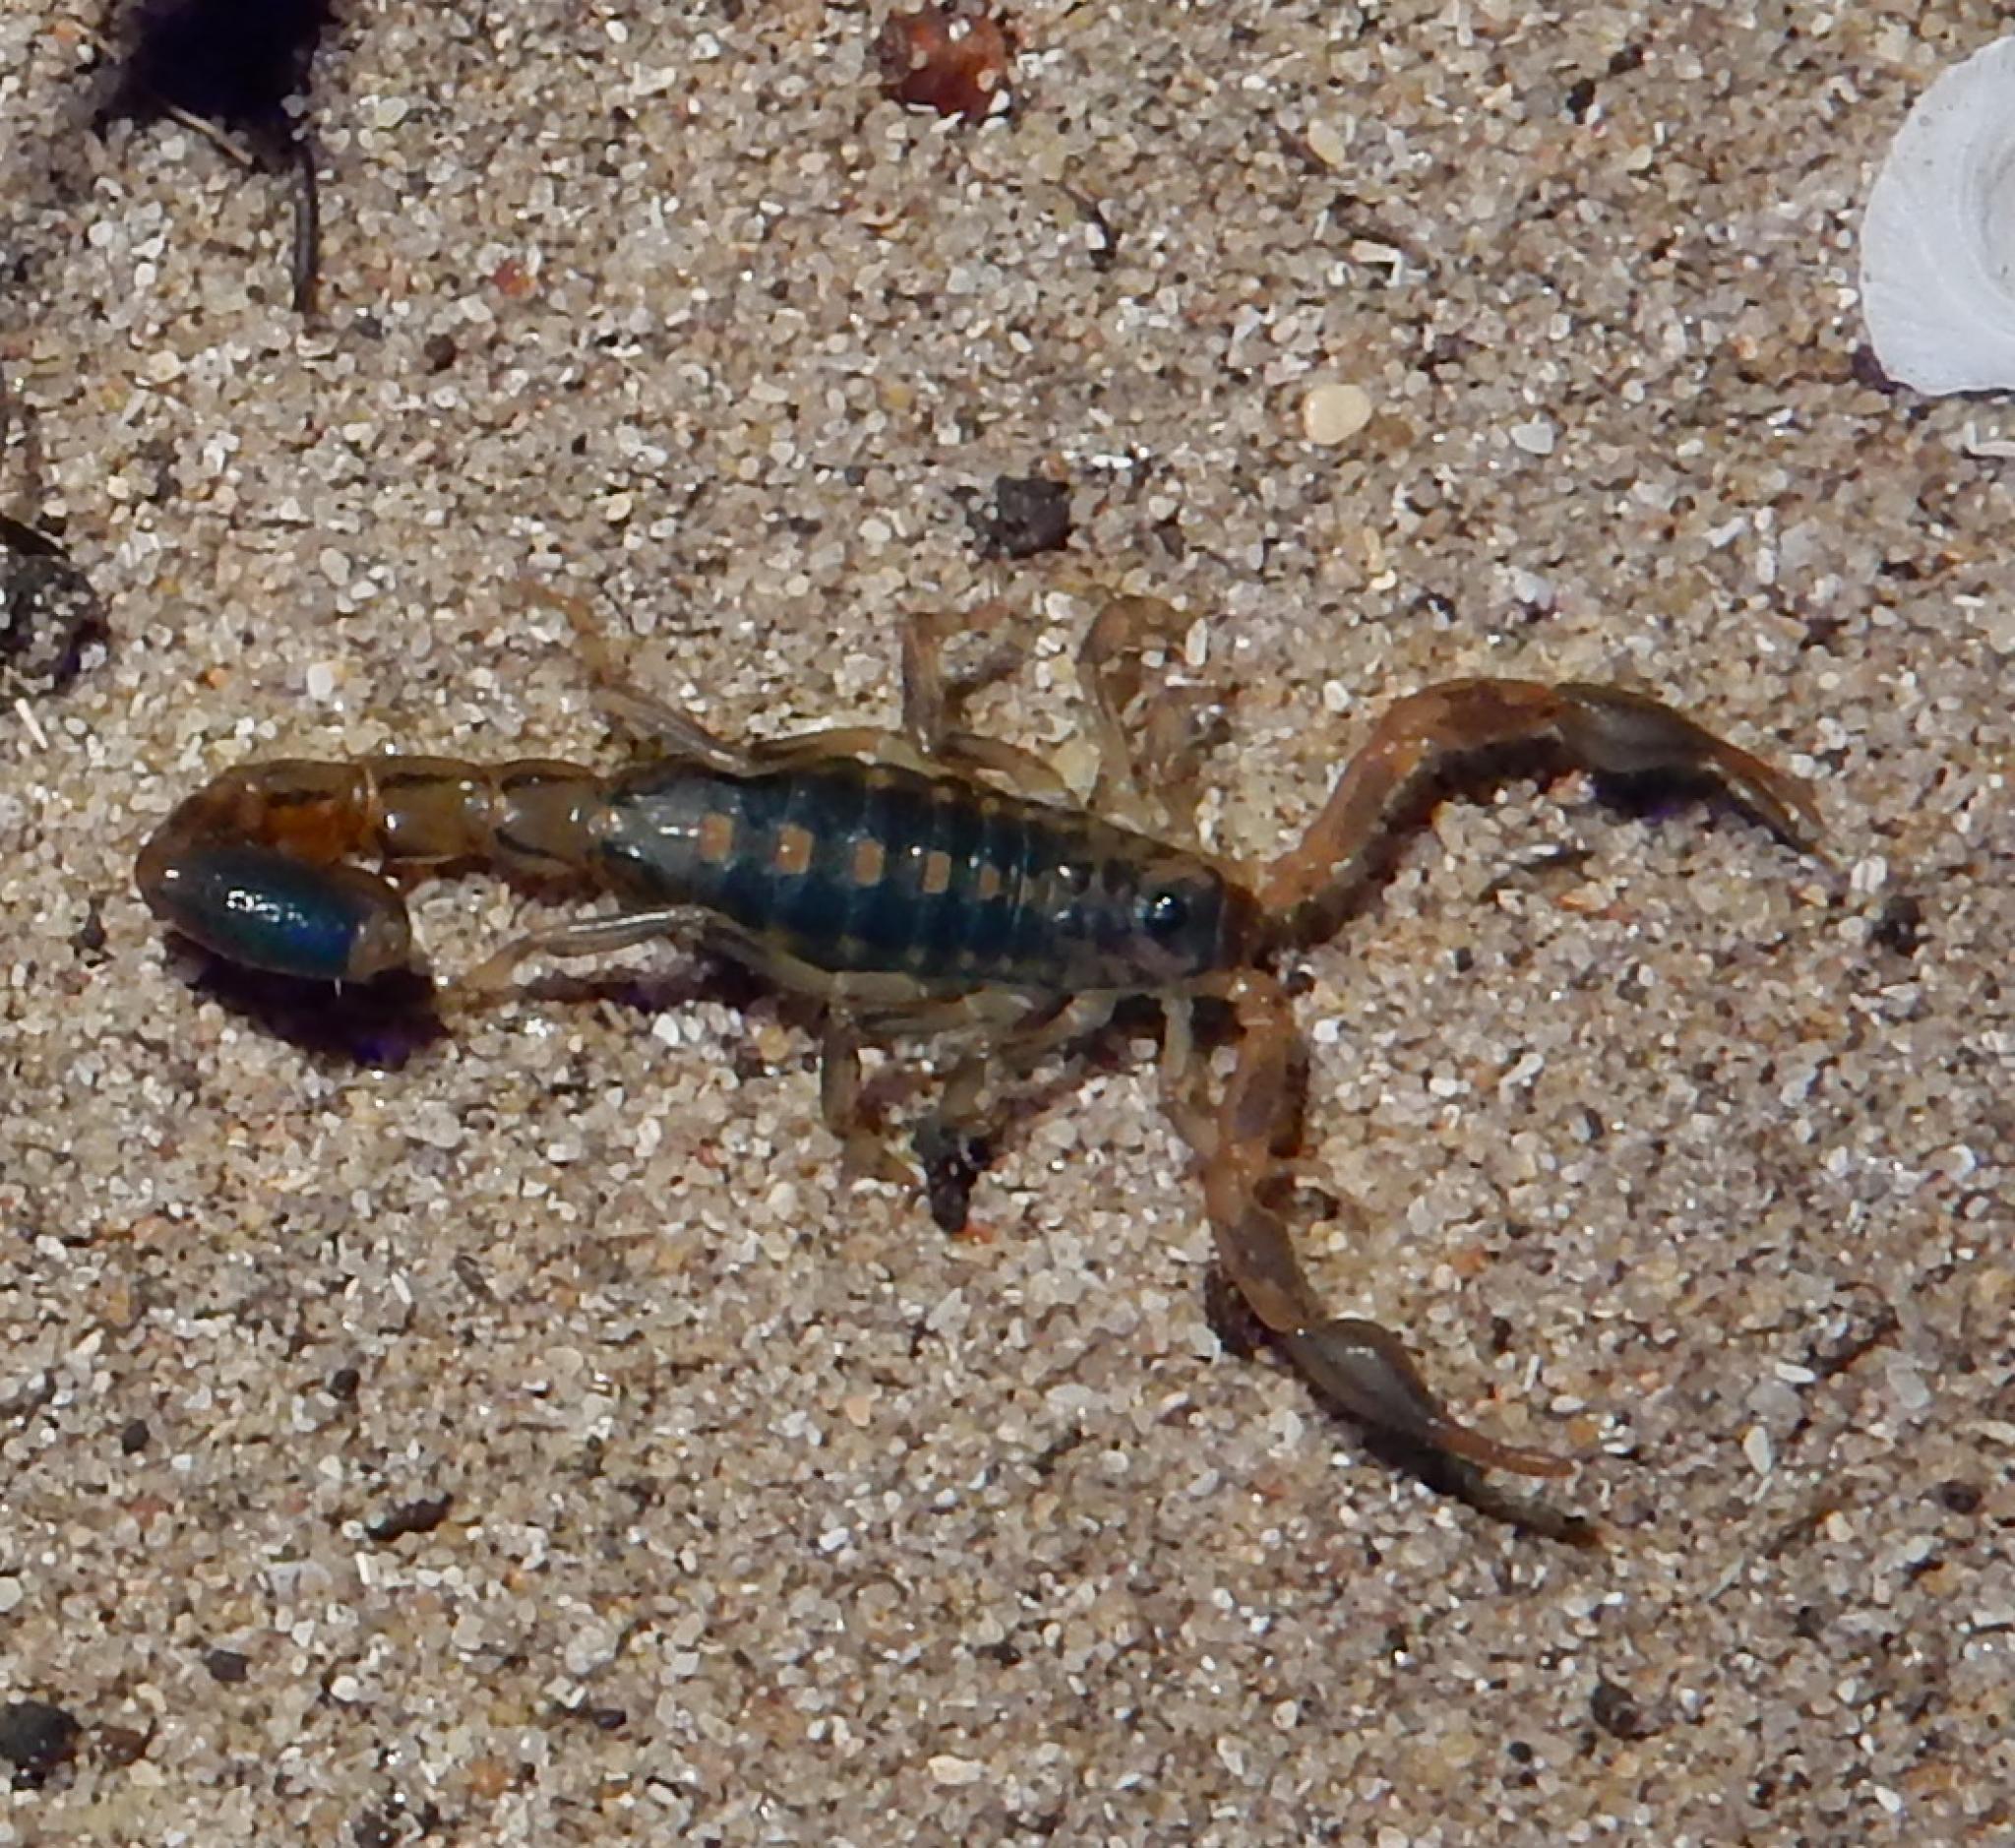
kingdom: Animalia
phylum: Arthropoda
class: Arachnida
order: Scorpiones
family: Buthidae
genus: Uroplectes
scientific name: Uroplectes formosus
